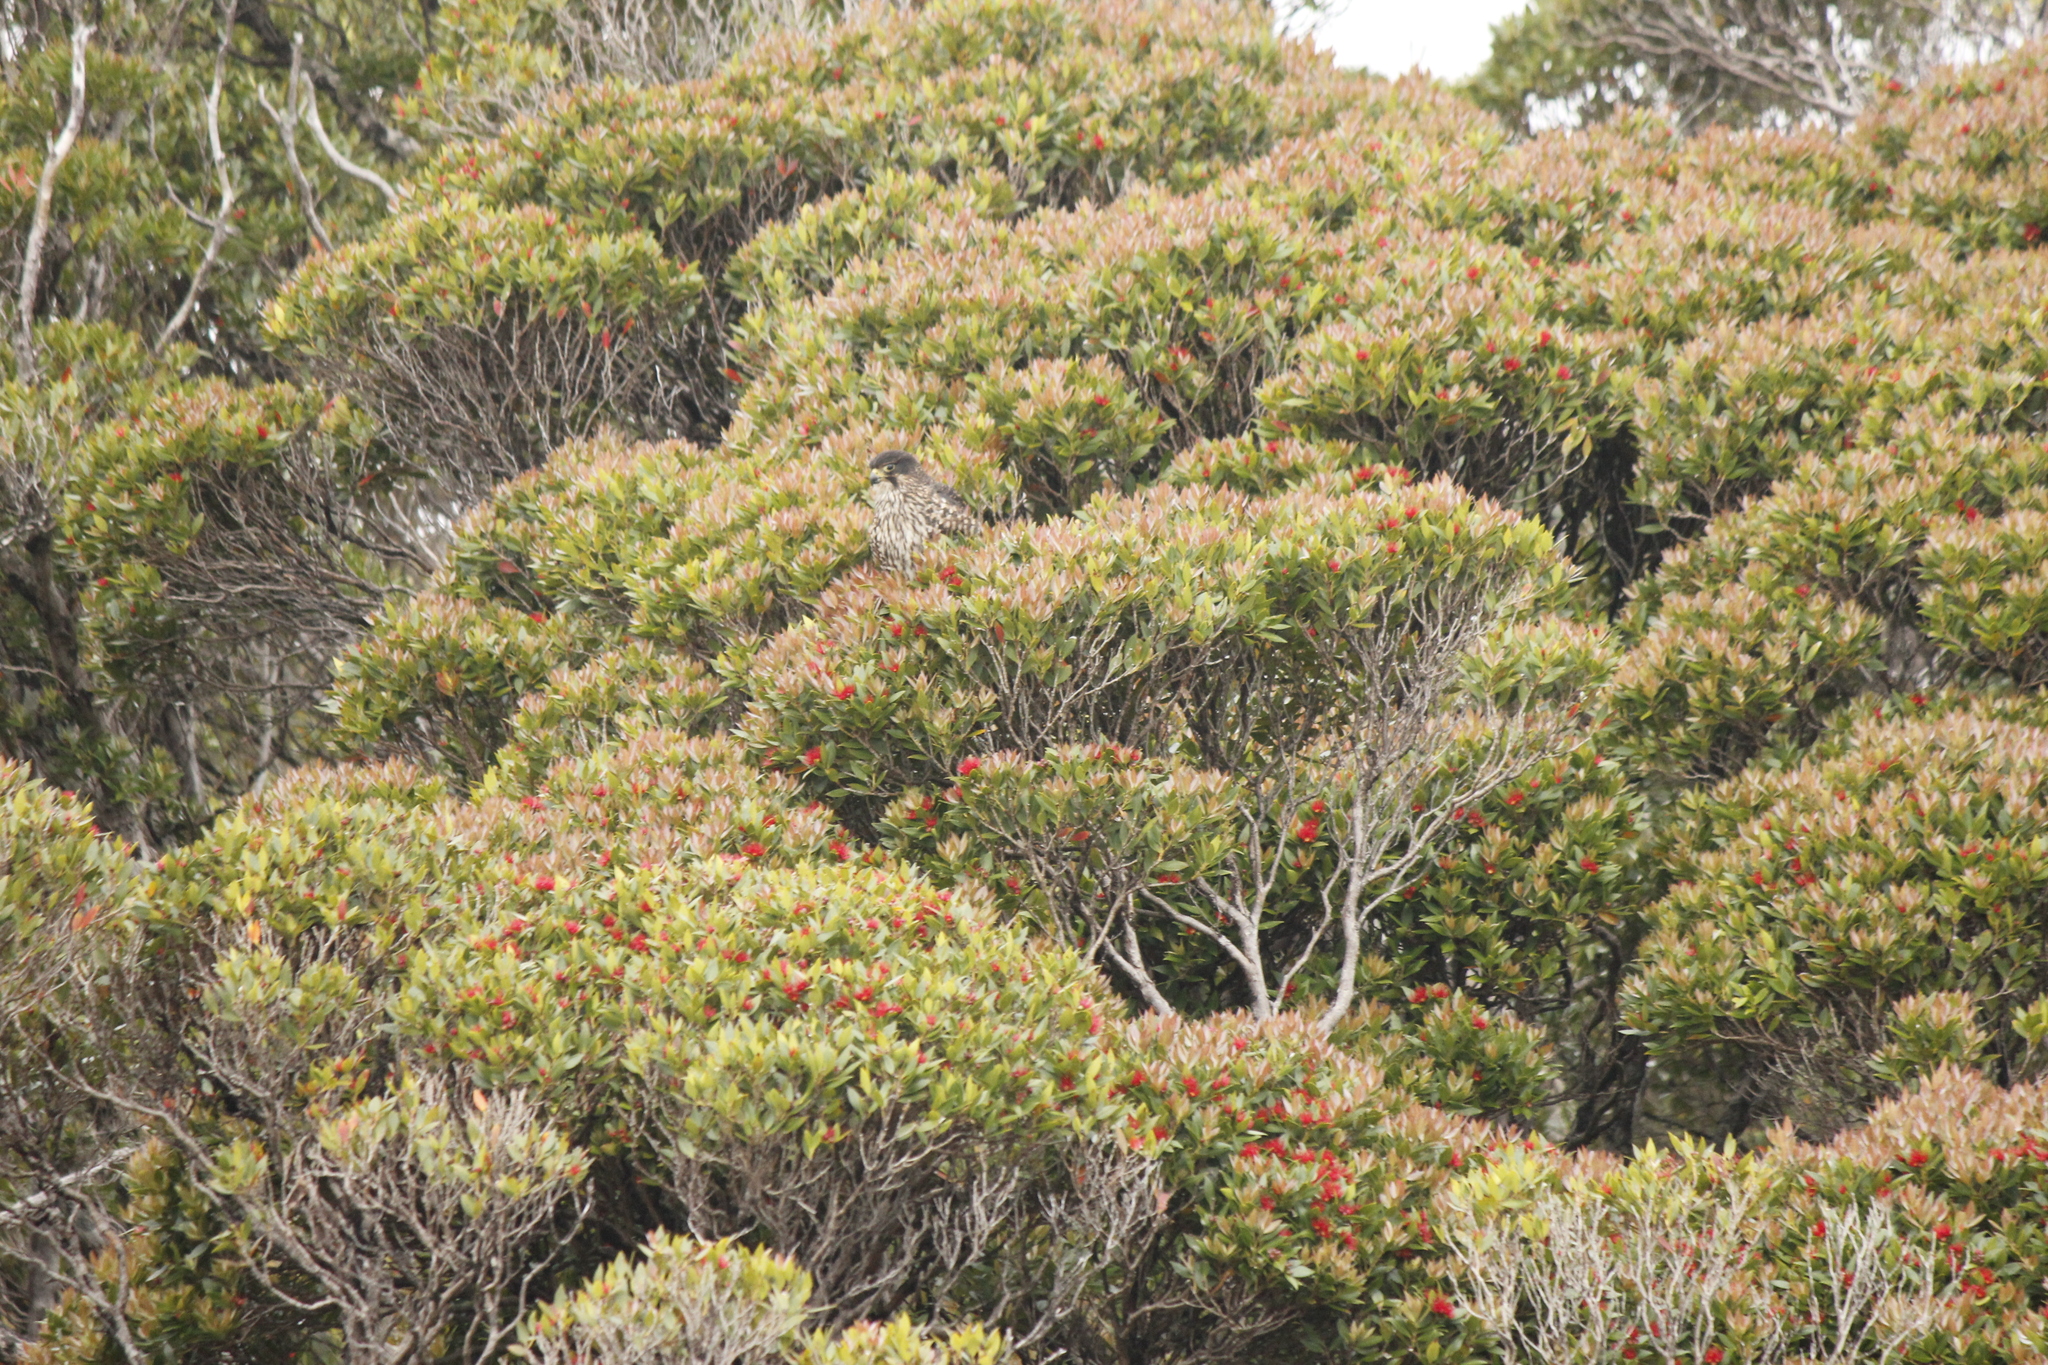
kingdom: Animalia
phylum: Chordata
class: Aves
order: Falconiformes
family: Falconidae
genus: Falco
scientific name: Falco novaeseelandiae
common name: New zealand falcon
